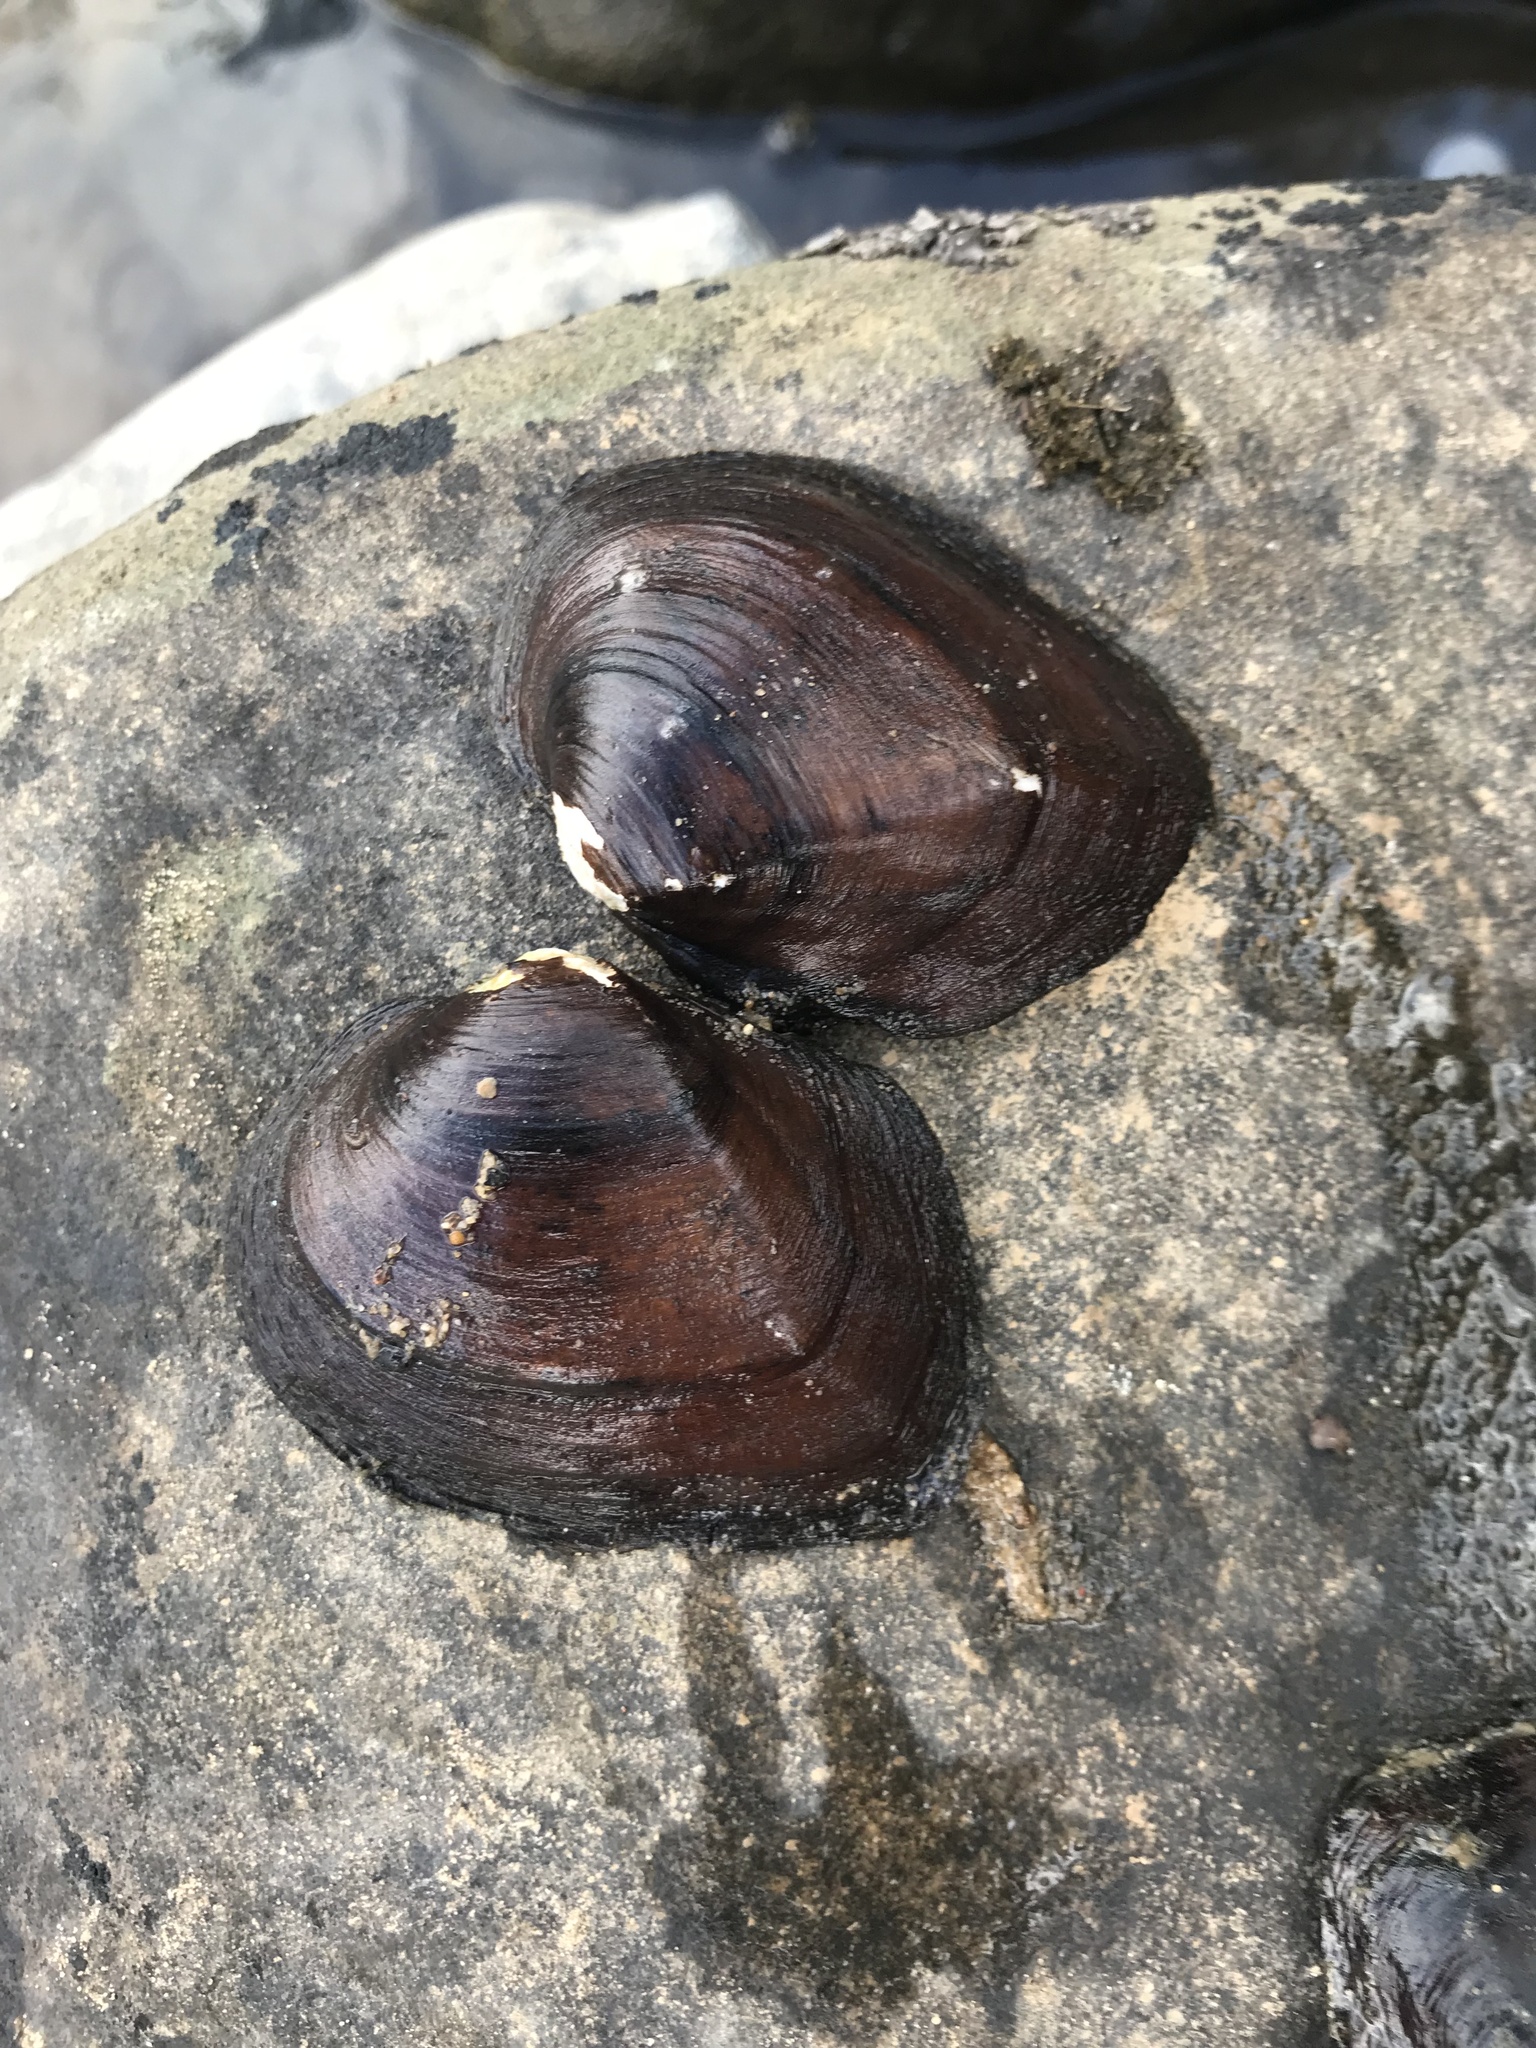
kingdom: Animalia
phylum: Mollusca
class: Bivalvia
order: Unionida
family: Unionidae
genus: Fusconaia
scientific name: Fusconaia cerina
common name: Gulf pigtoe
